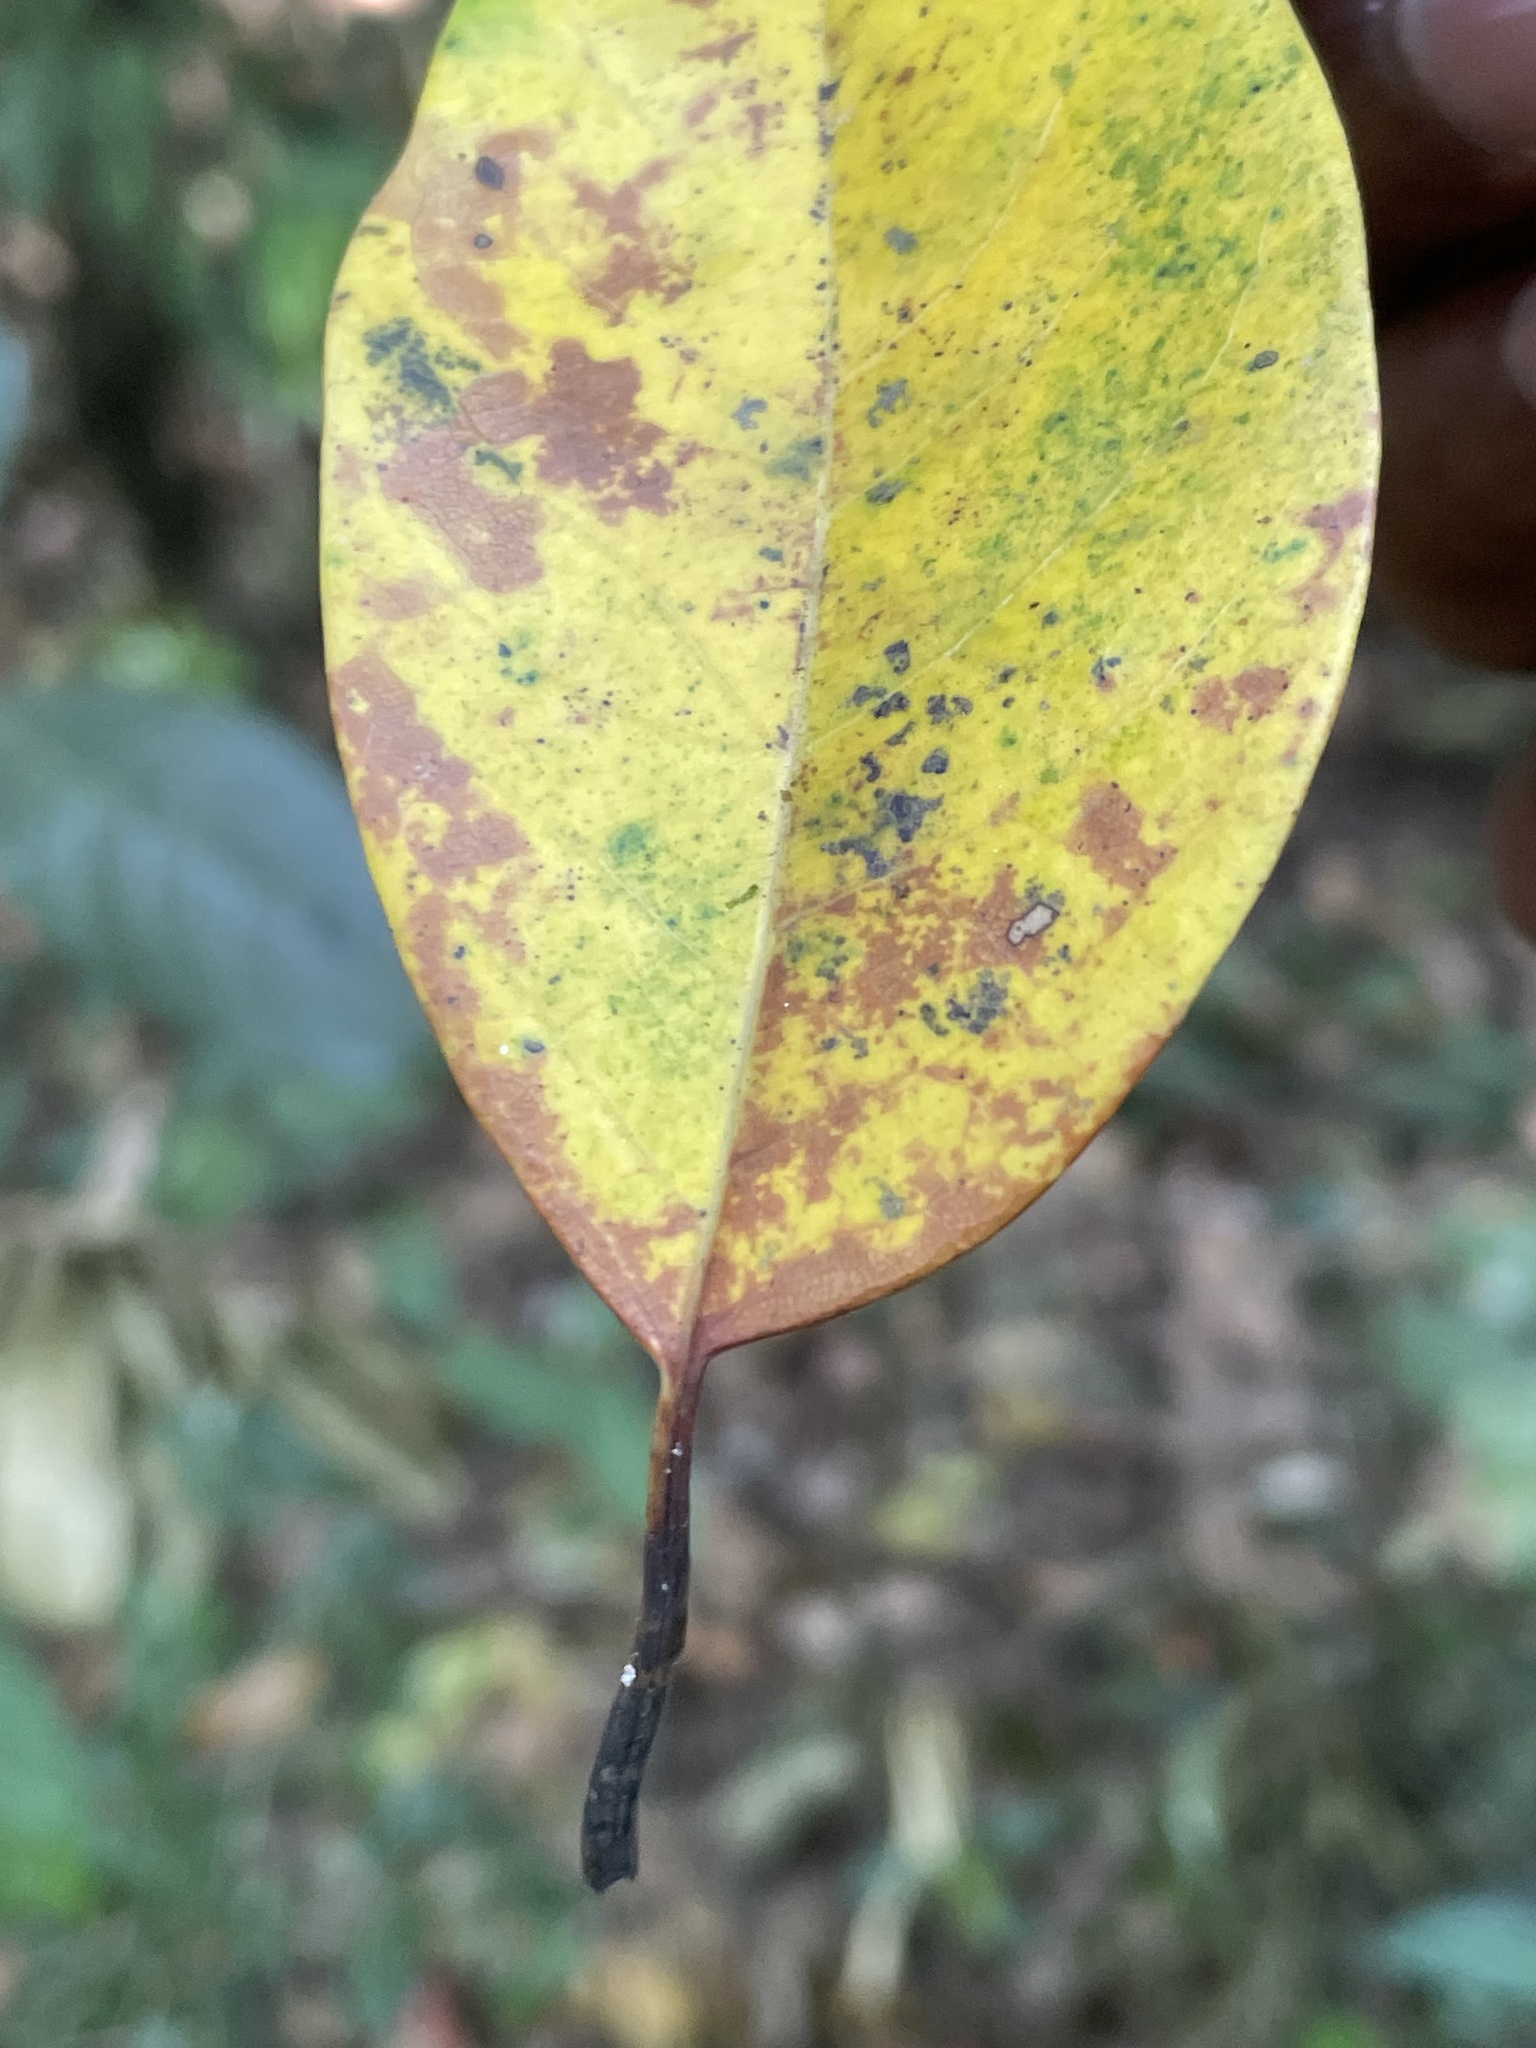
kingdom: Plantae
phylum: Tracheophyta
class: Magnoliopsida
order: Laurales
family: Lauraceae
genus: Machilus
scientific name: Machilus glaucescens
